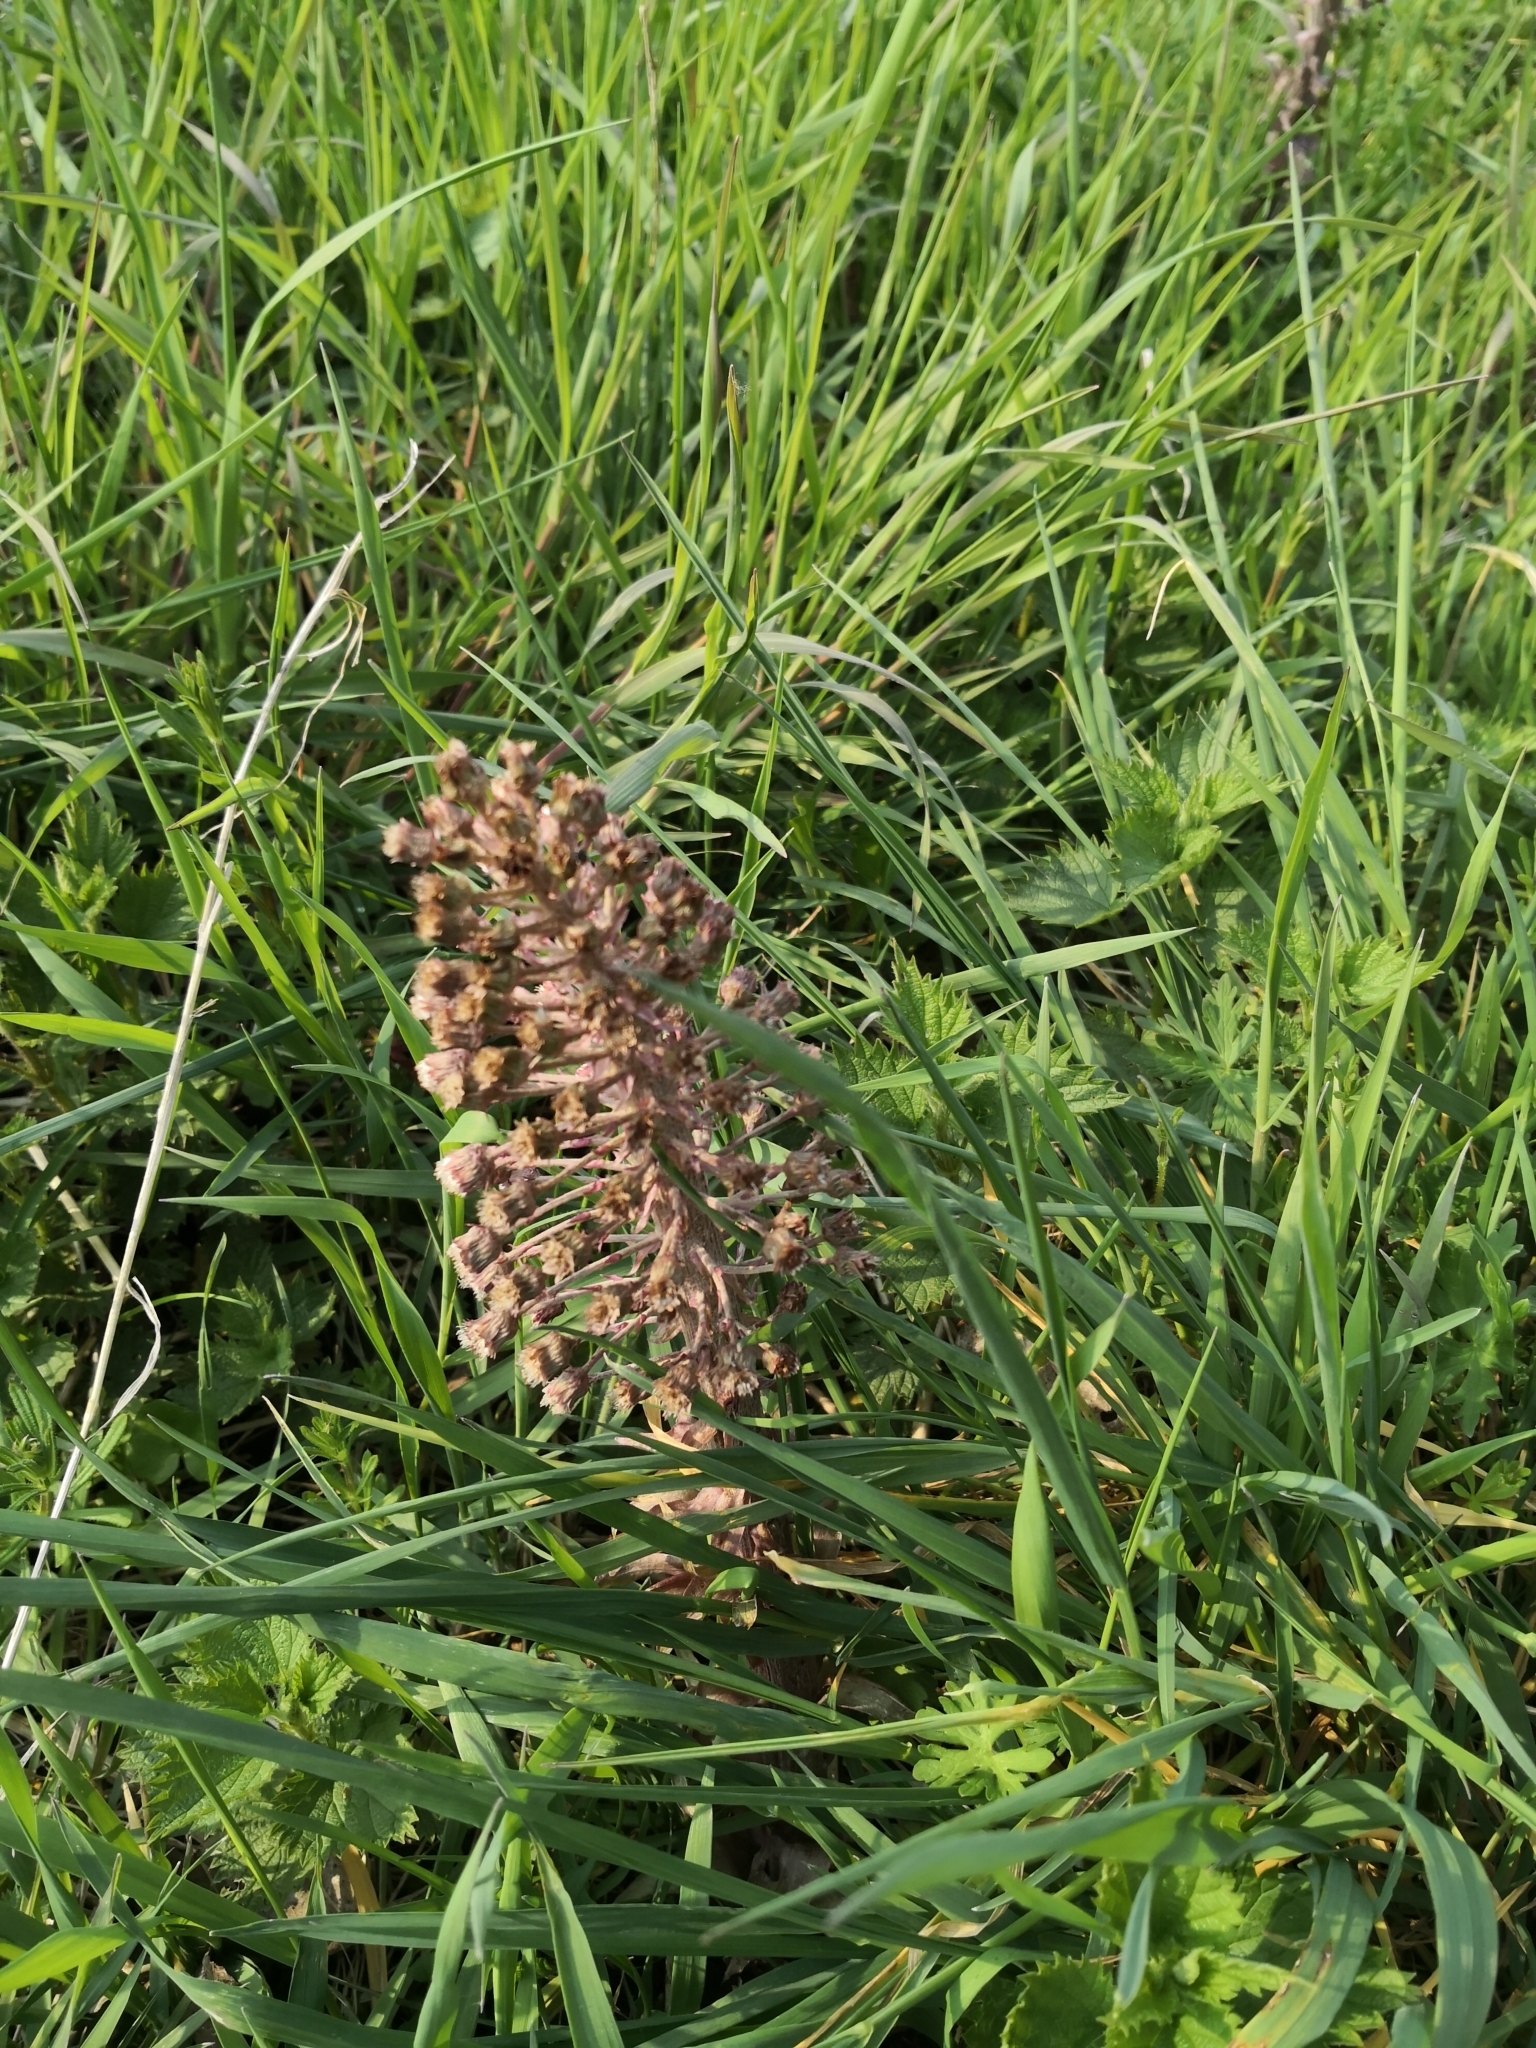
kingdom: Plantae
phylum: Tracheophyta
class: Magnoliopsida
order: Asterales
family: Asteraceae
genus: Petasites
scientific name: Petasites hybridus
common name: Butterbur
